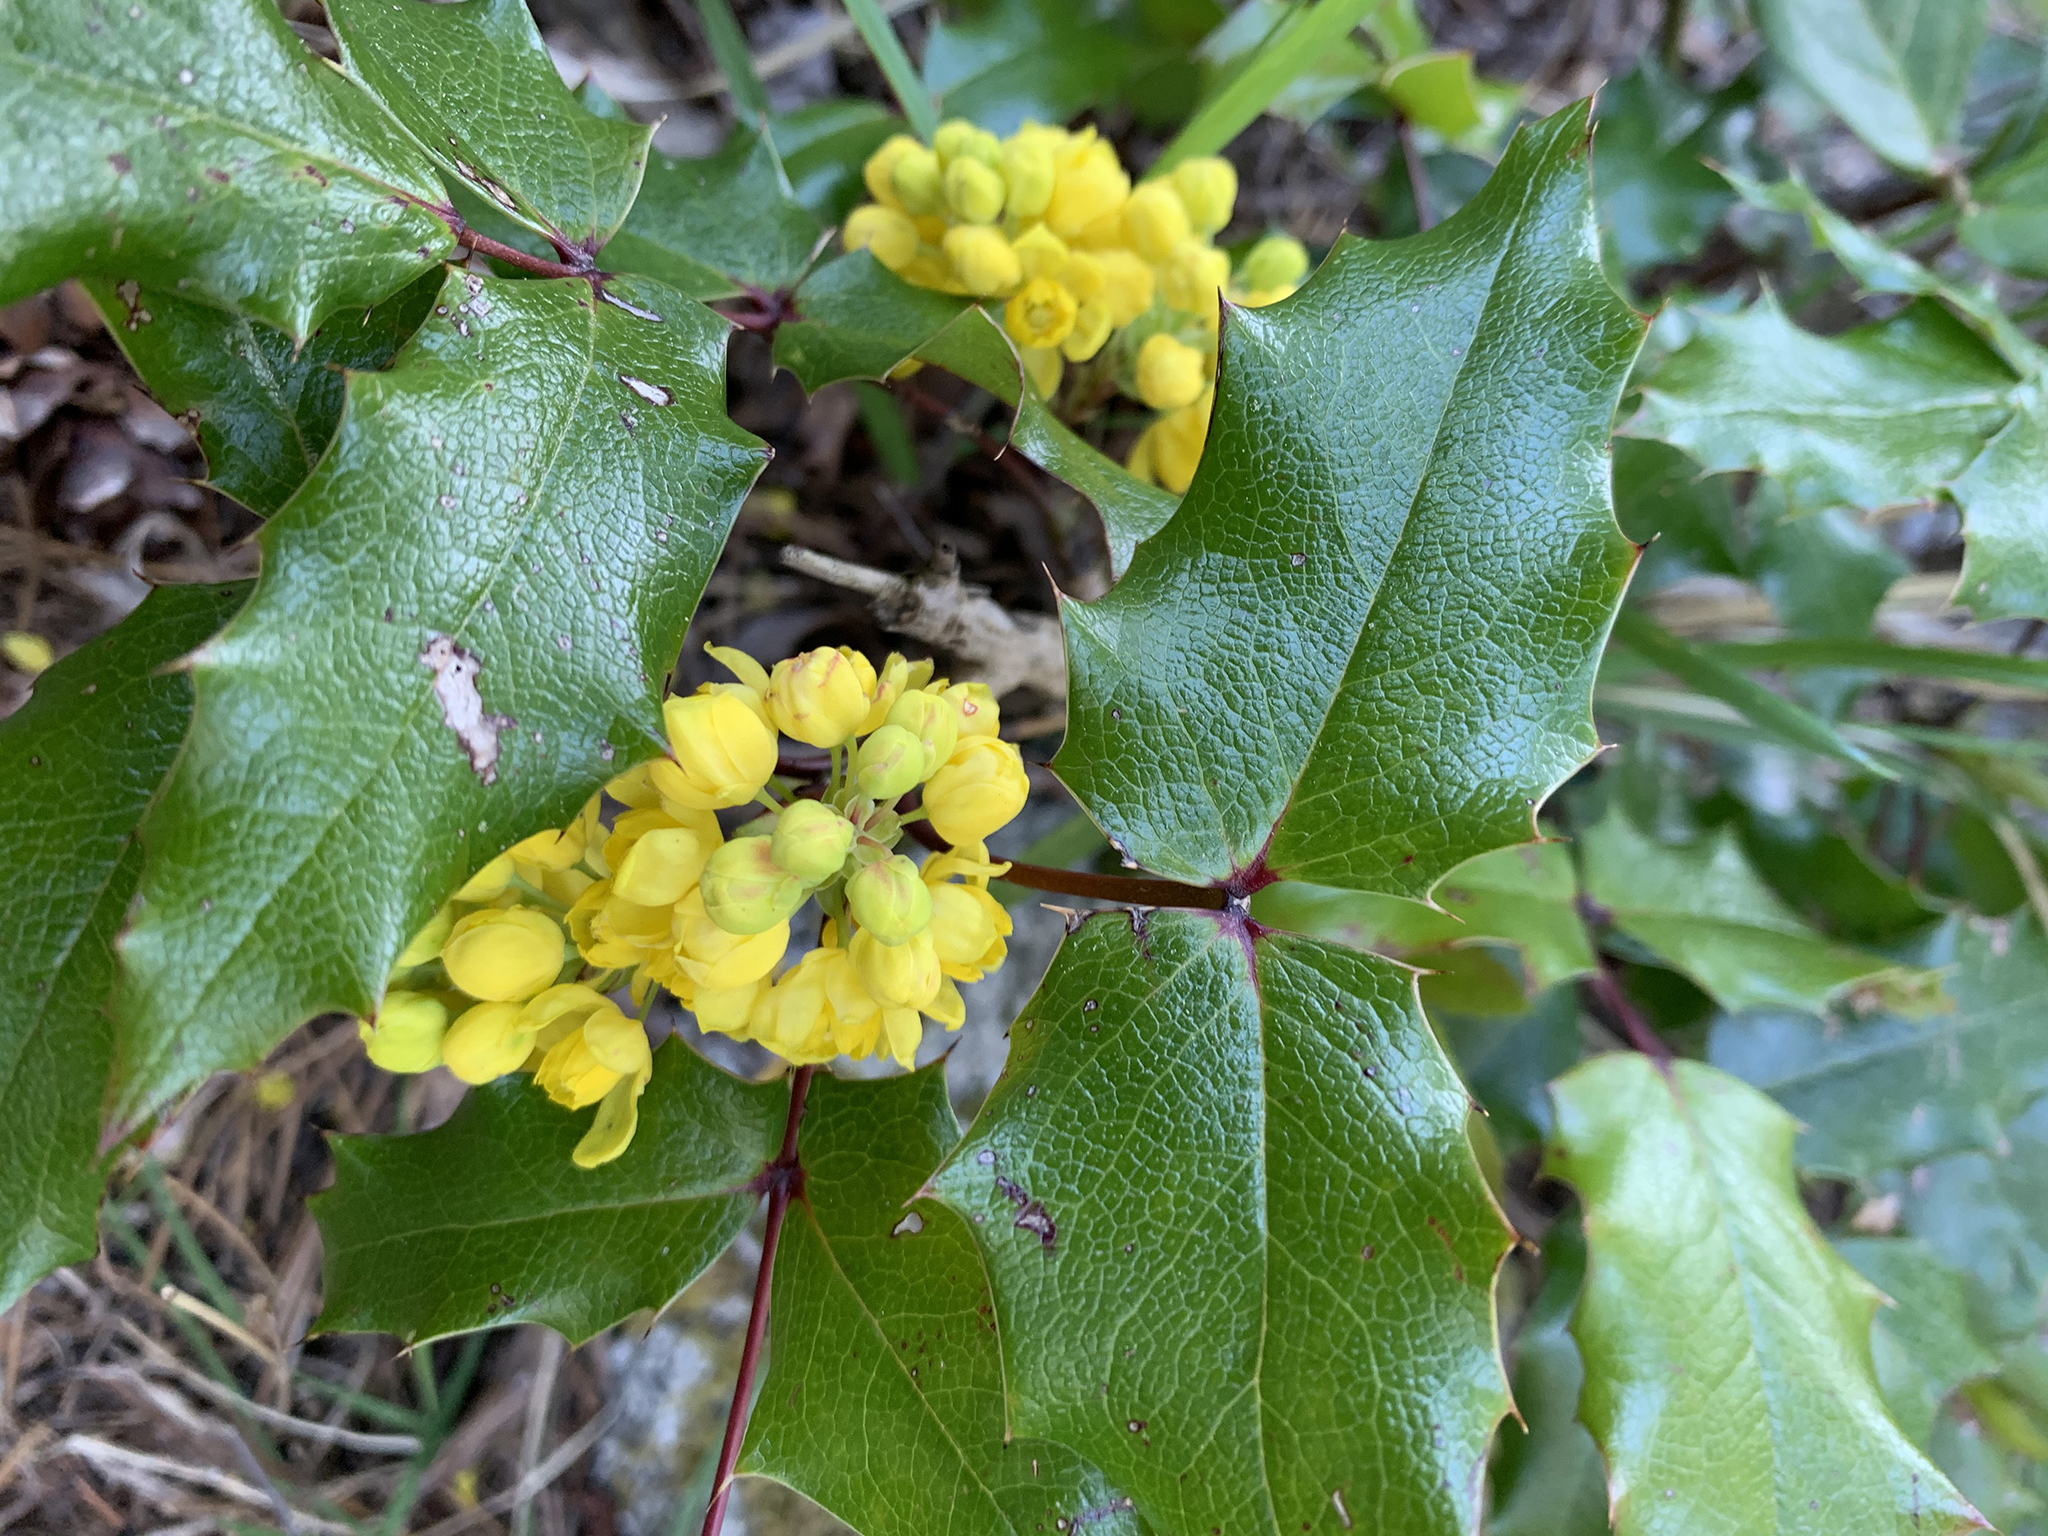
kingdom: Plantae
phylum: Tracheophyta
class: Magnoliopsida
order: Ranunculales
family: Berberidaceae
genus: Mahonia
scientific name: Mahonia aquifolium
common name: Oregon-grape
